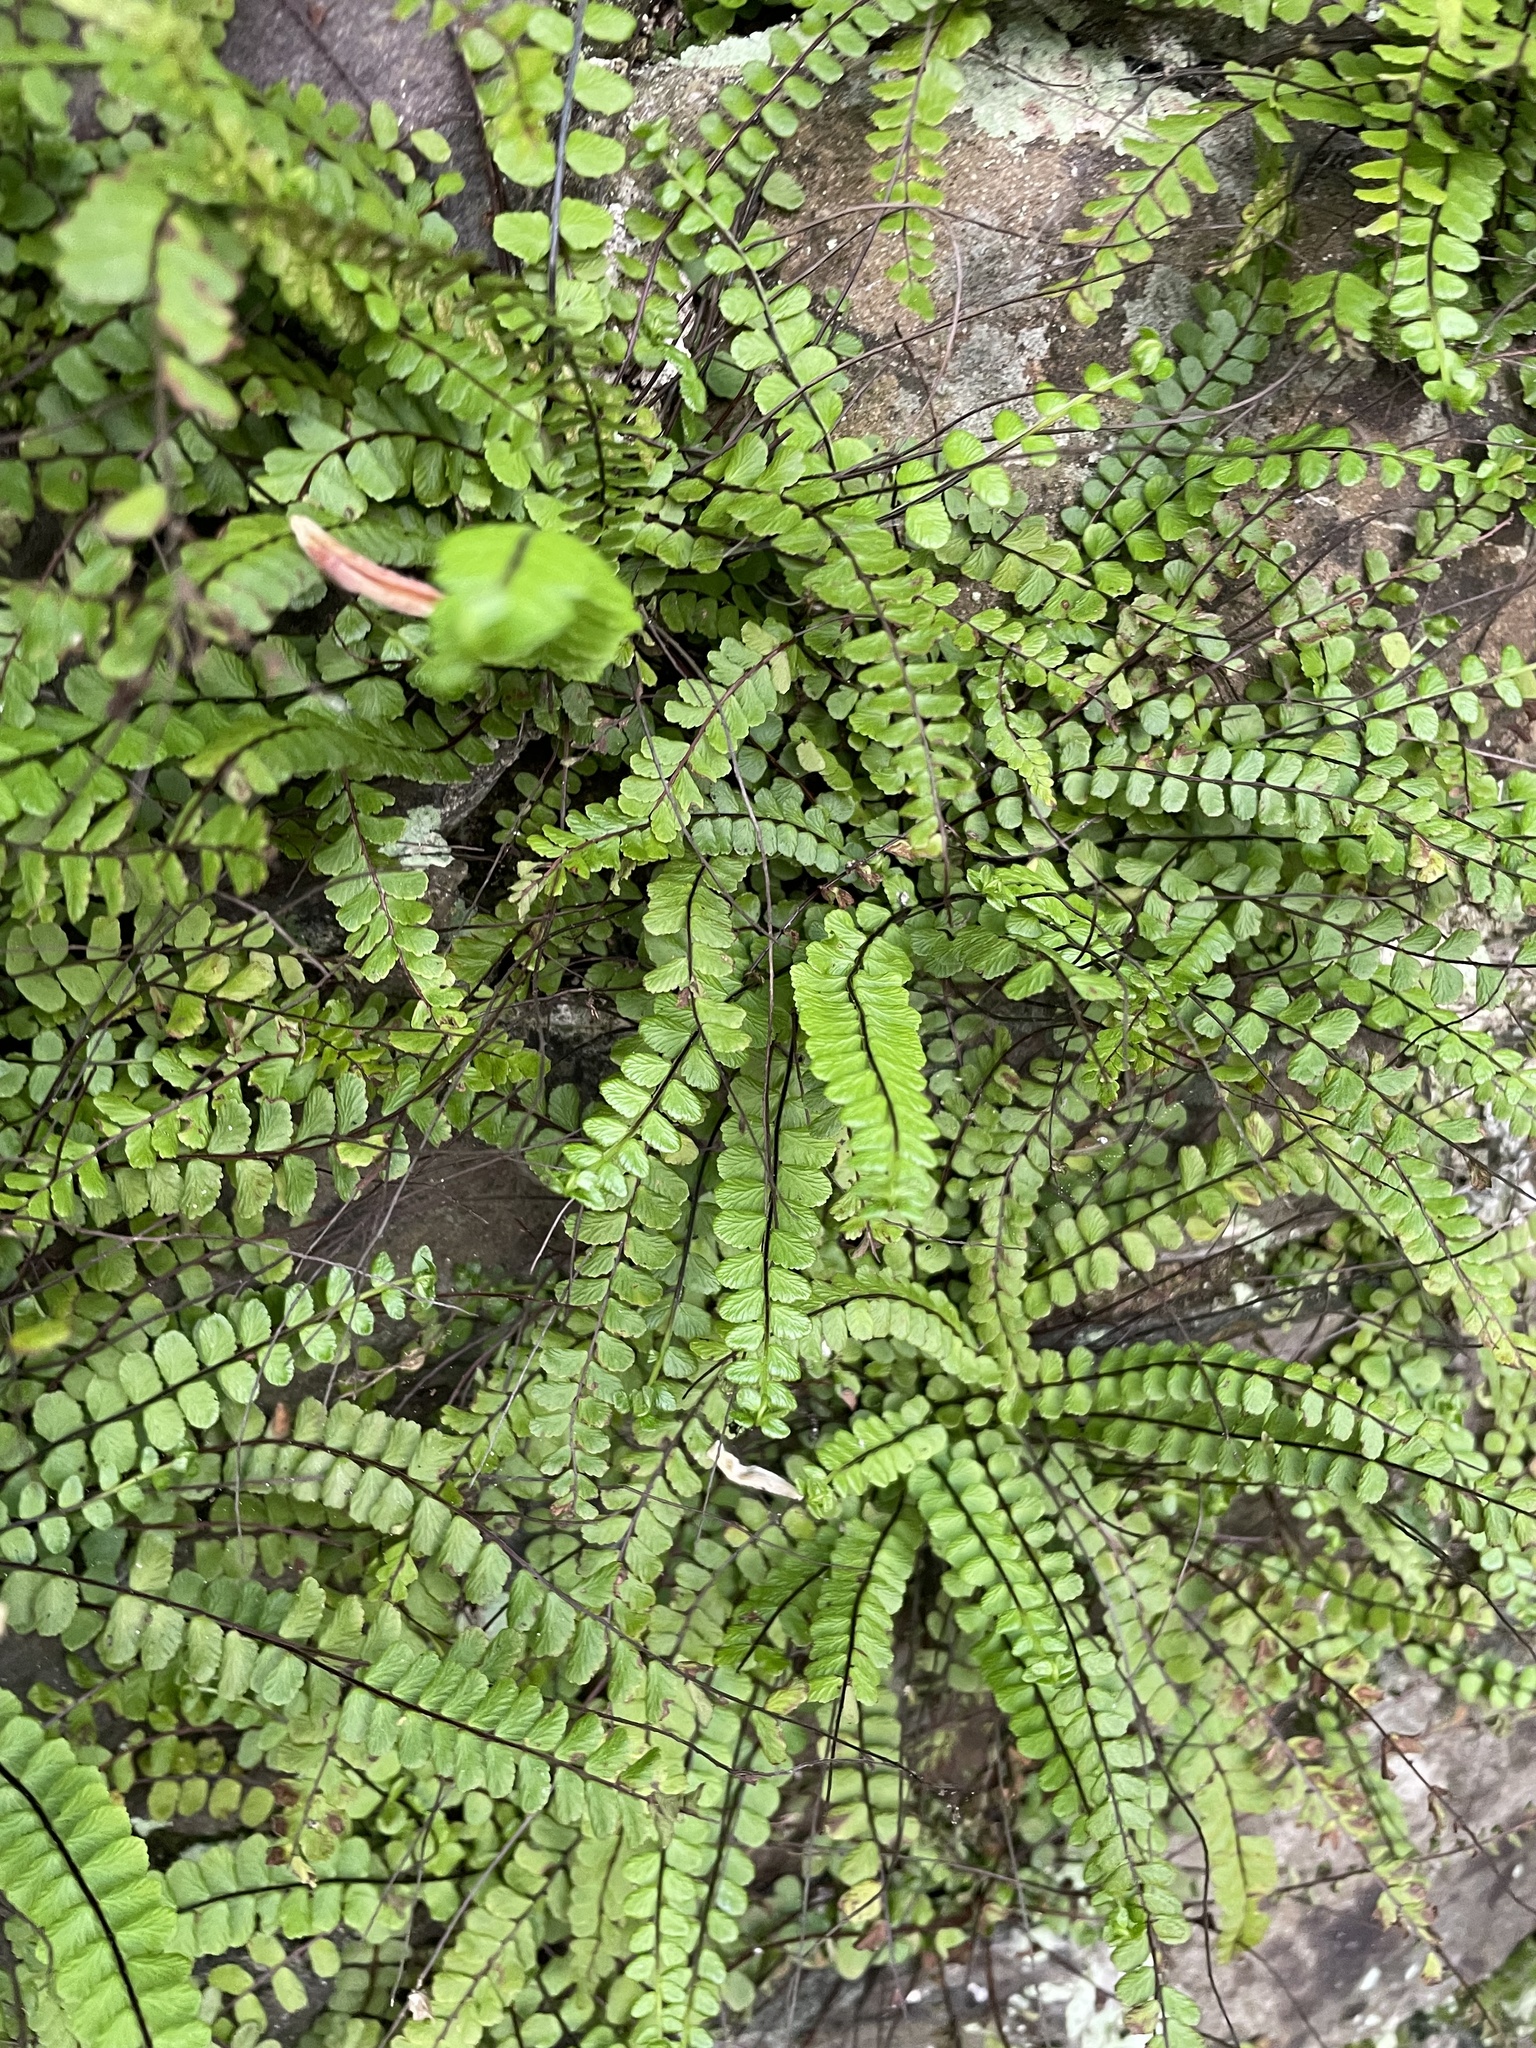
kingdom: Plantae
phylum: Tracheophyta
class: Polypodiopsida
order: Polypodiales
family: Aspleniaceae
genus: Asplenium
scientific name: Asplenium trichomanes
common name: Maidenhair spleenwort
